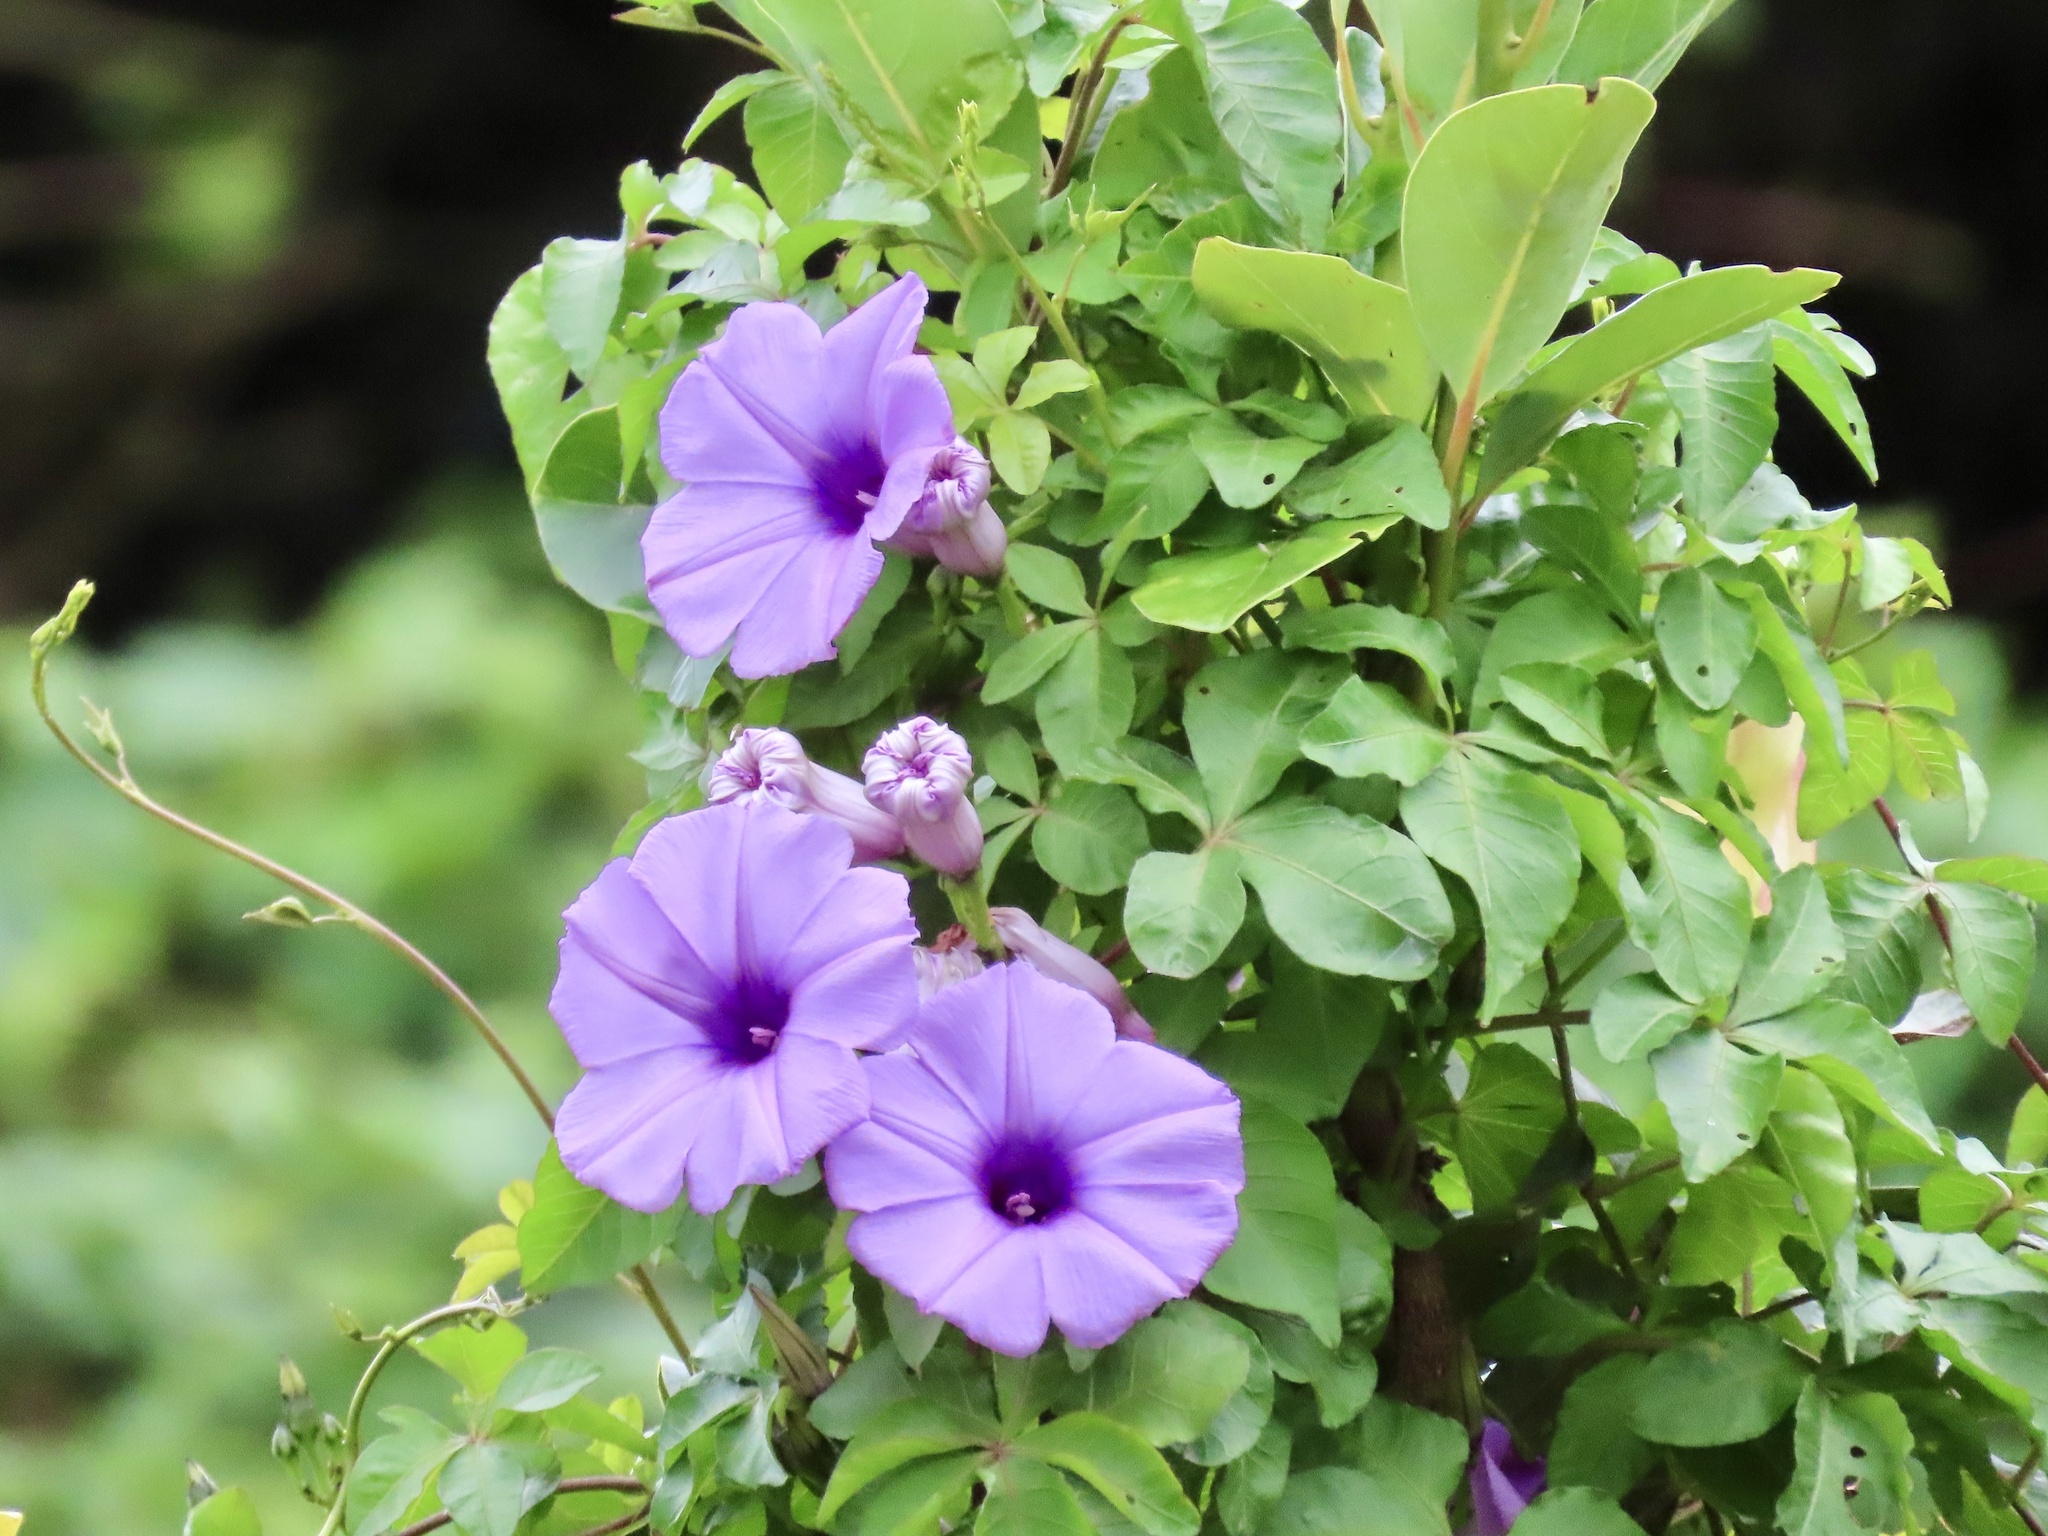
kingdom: Plantae
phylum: Tracheophyta
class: Magnoliopsida
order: Solanales
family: Convolvulaceae
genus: Ipomoea
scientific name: Ipomoea cairica
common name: Mile a minute vine
